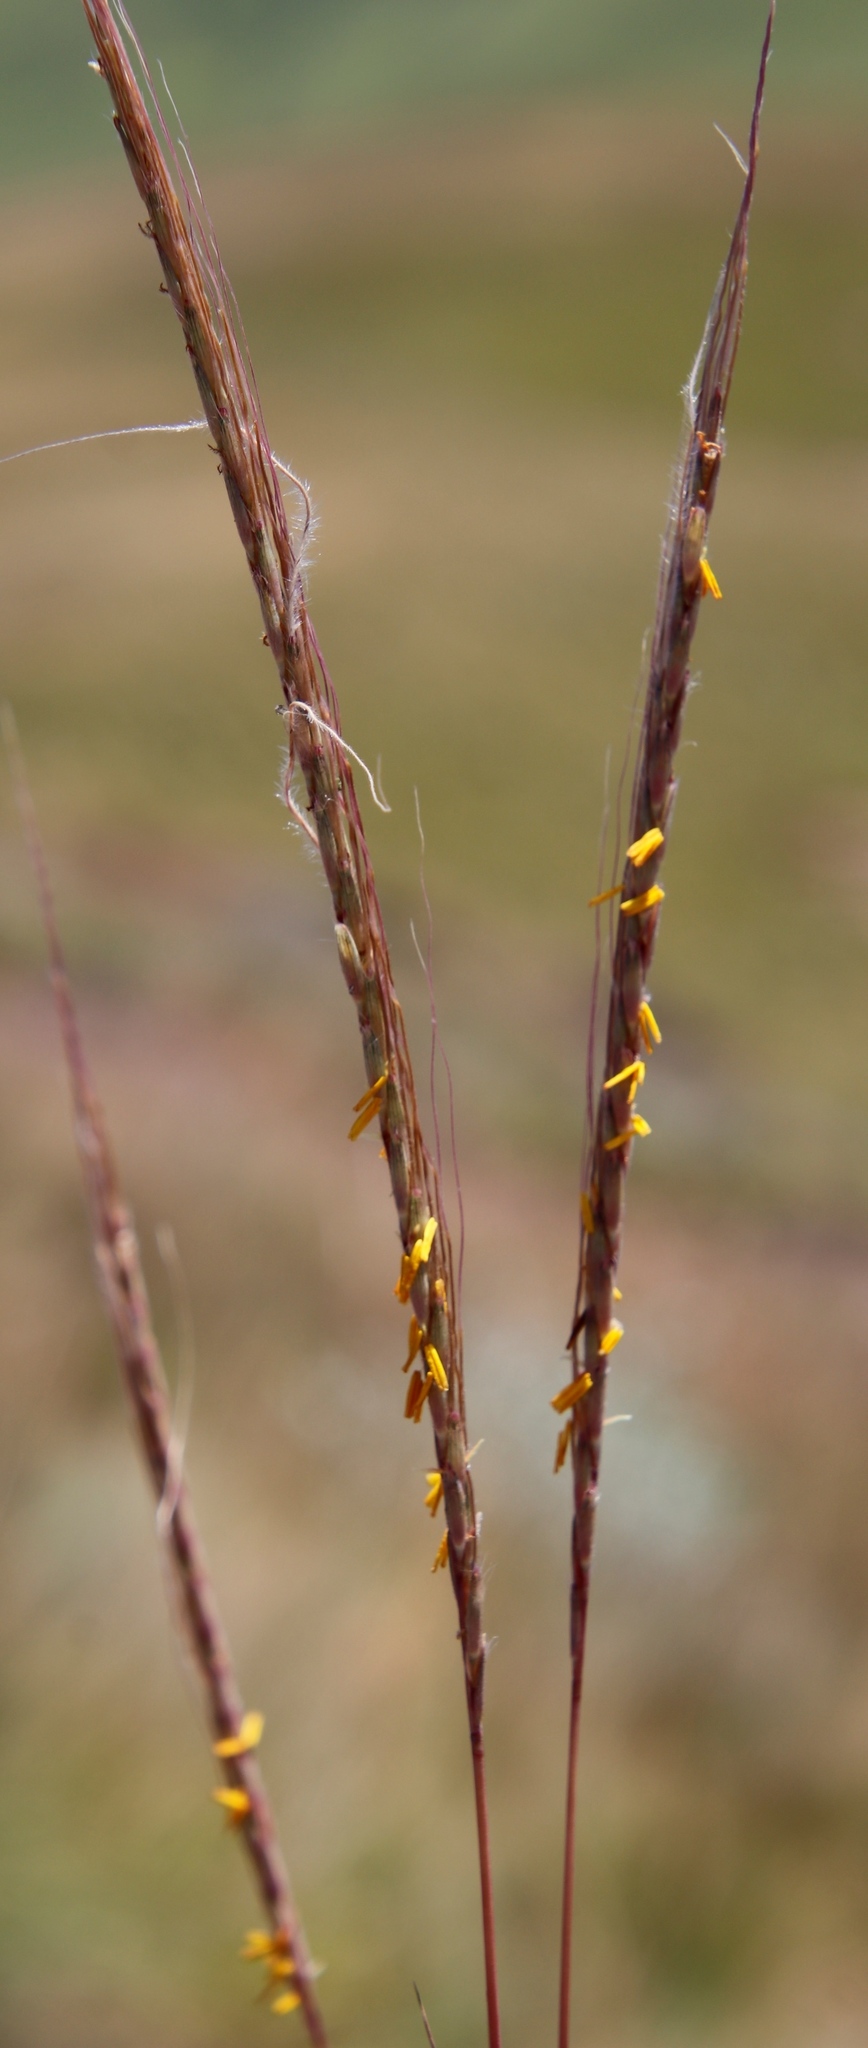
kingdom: Plantae
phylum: Tracheophyta
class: Liliopsida
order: Poales
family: Poaceae
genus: Trachypogon
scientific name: Trachypogon spicatus
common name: Crinkle-awn
